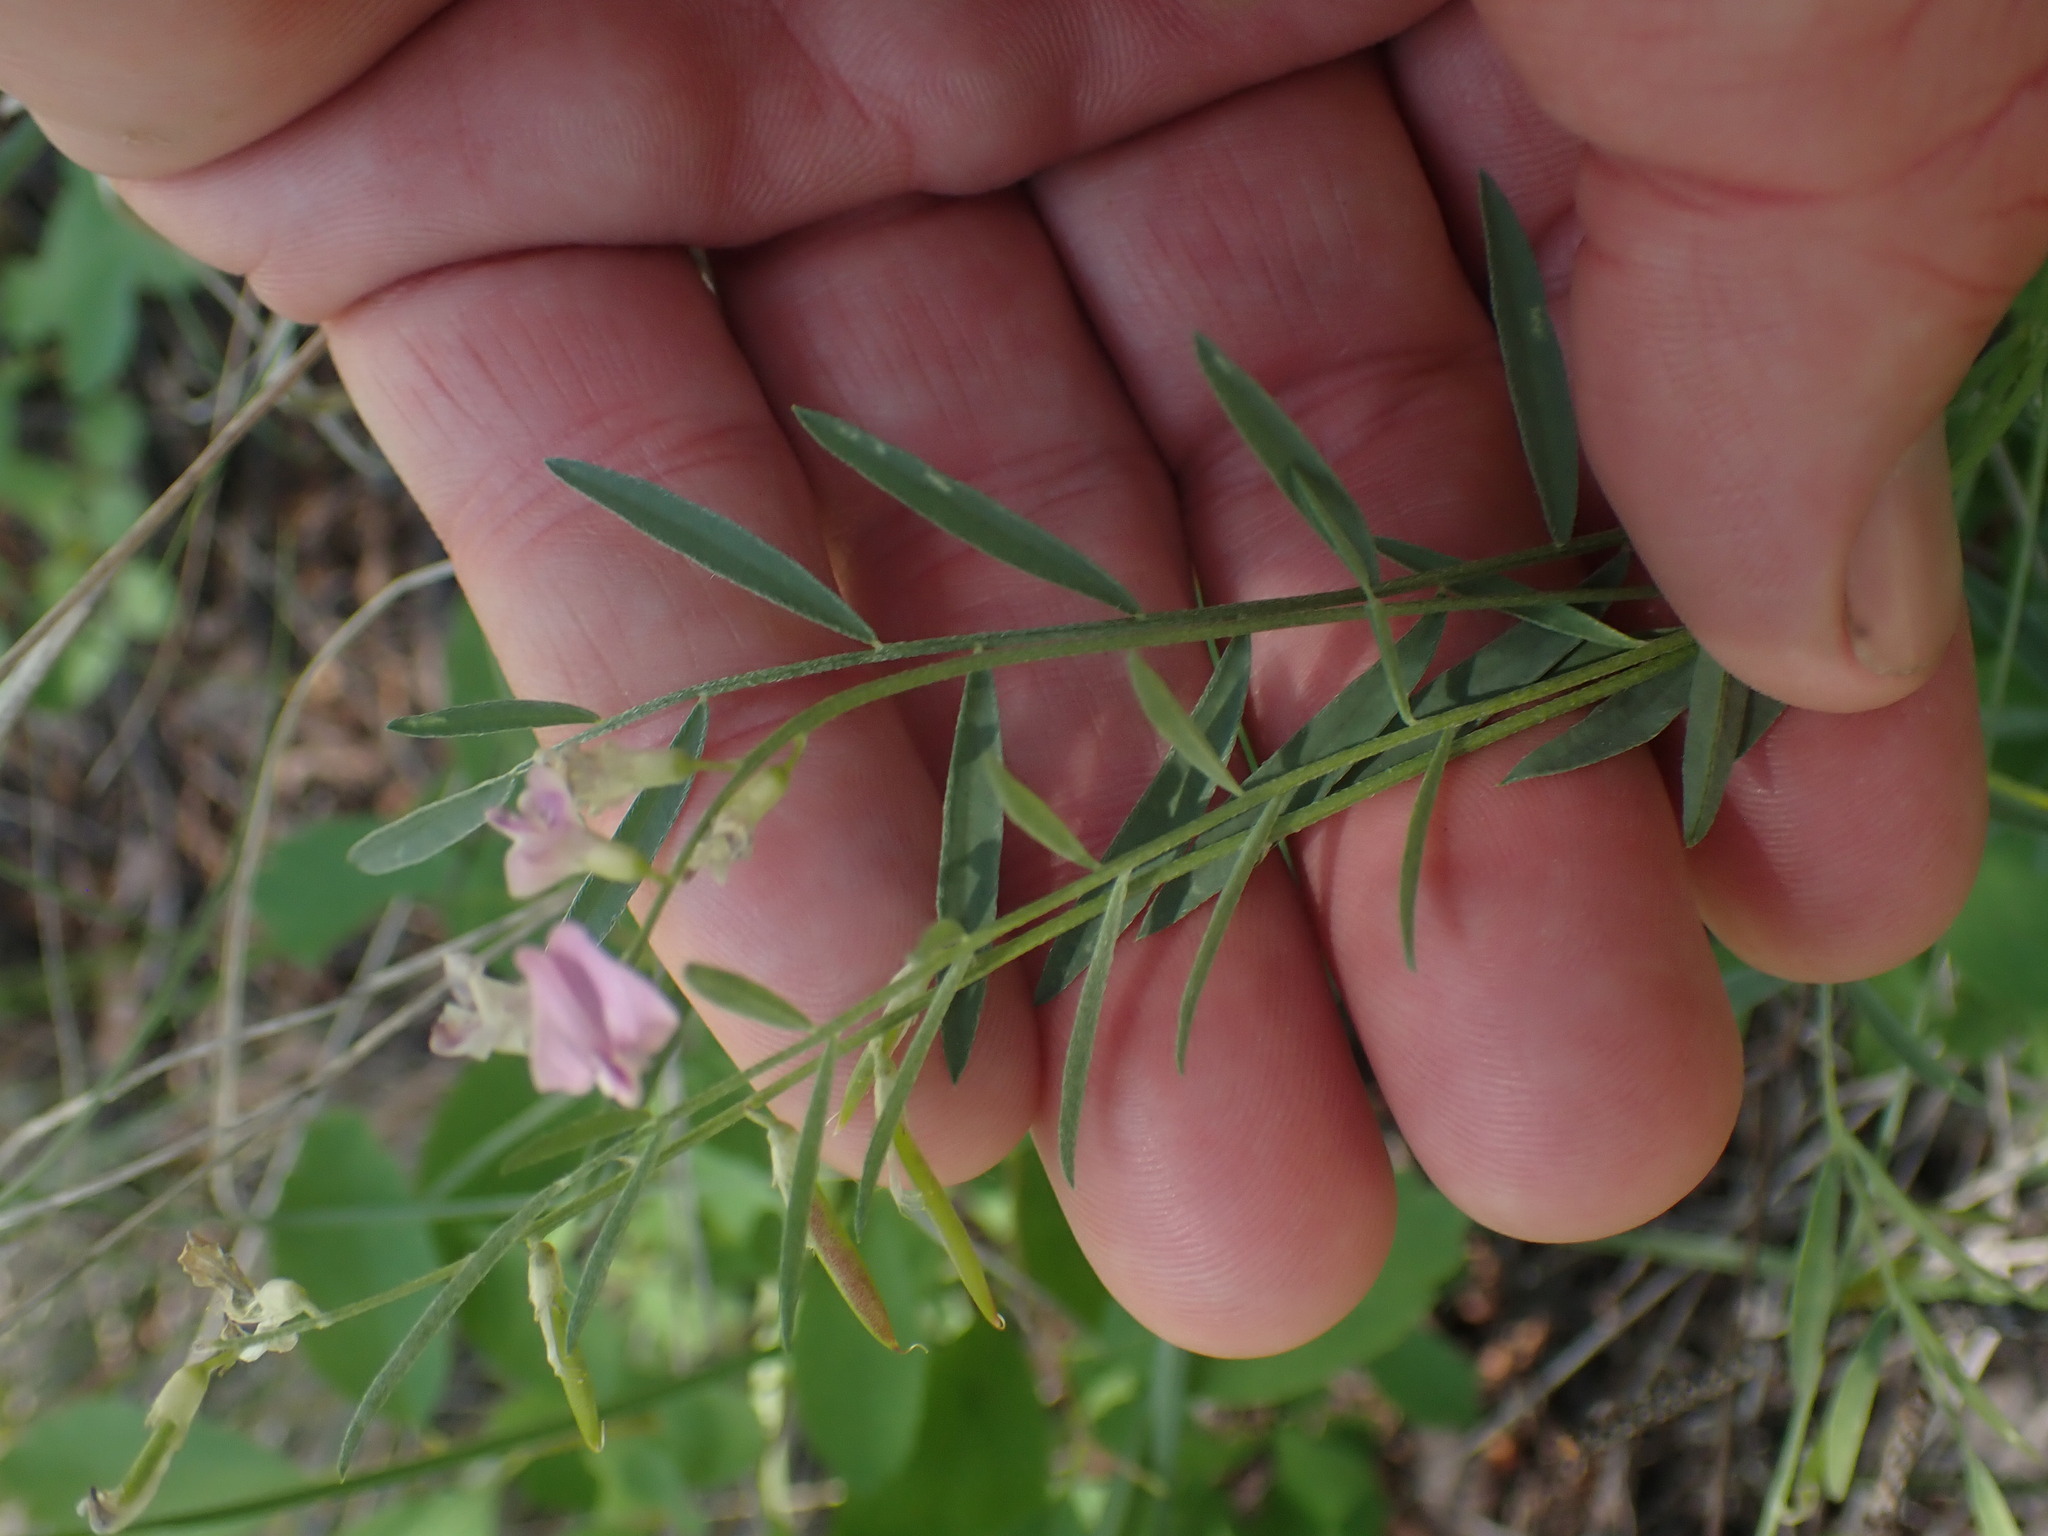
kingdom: Plantae
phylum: Tracheophyta
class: Magnoliopsida
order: Fabales
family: Fabaceae
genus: Astragalus
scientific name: Astragalus miser
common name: Timber milkvetch
